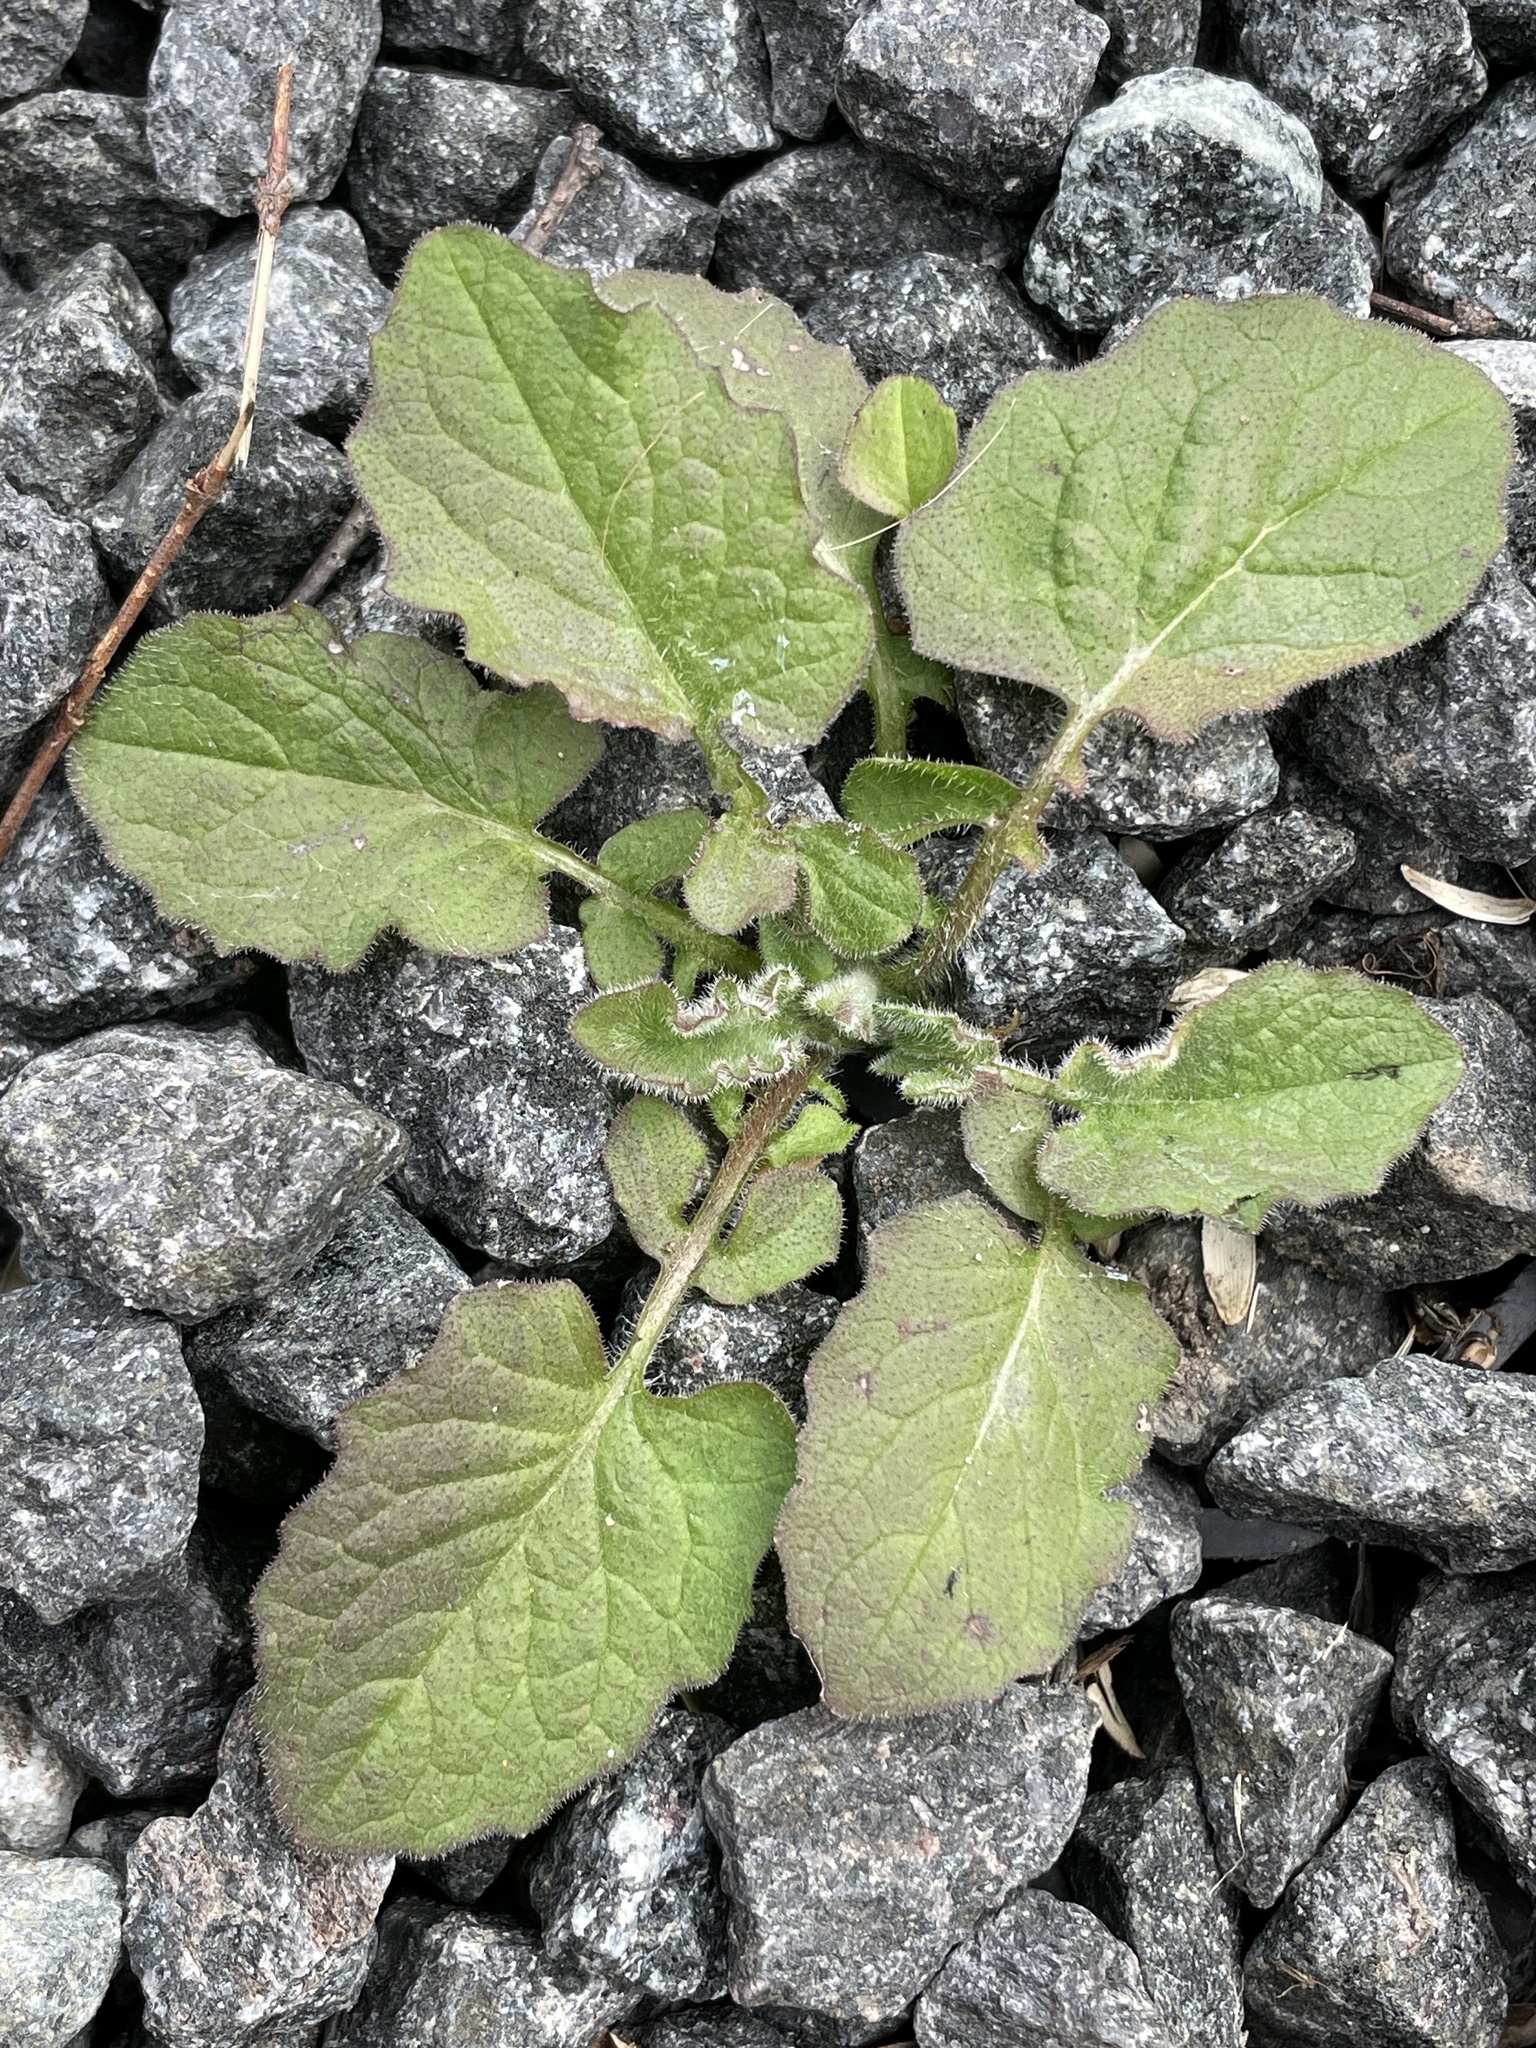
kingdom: Plantae
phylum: Tracheophyta
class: Magnoliopsida
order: Asterales
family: Asteraceae
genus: Lapsana
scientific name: Lapsana communis
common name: Nipplewort
